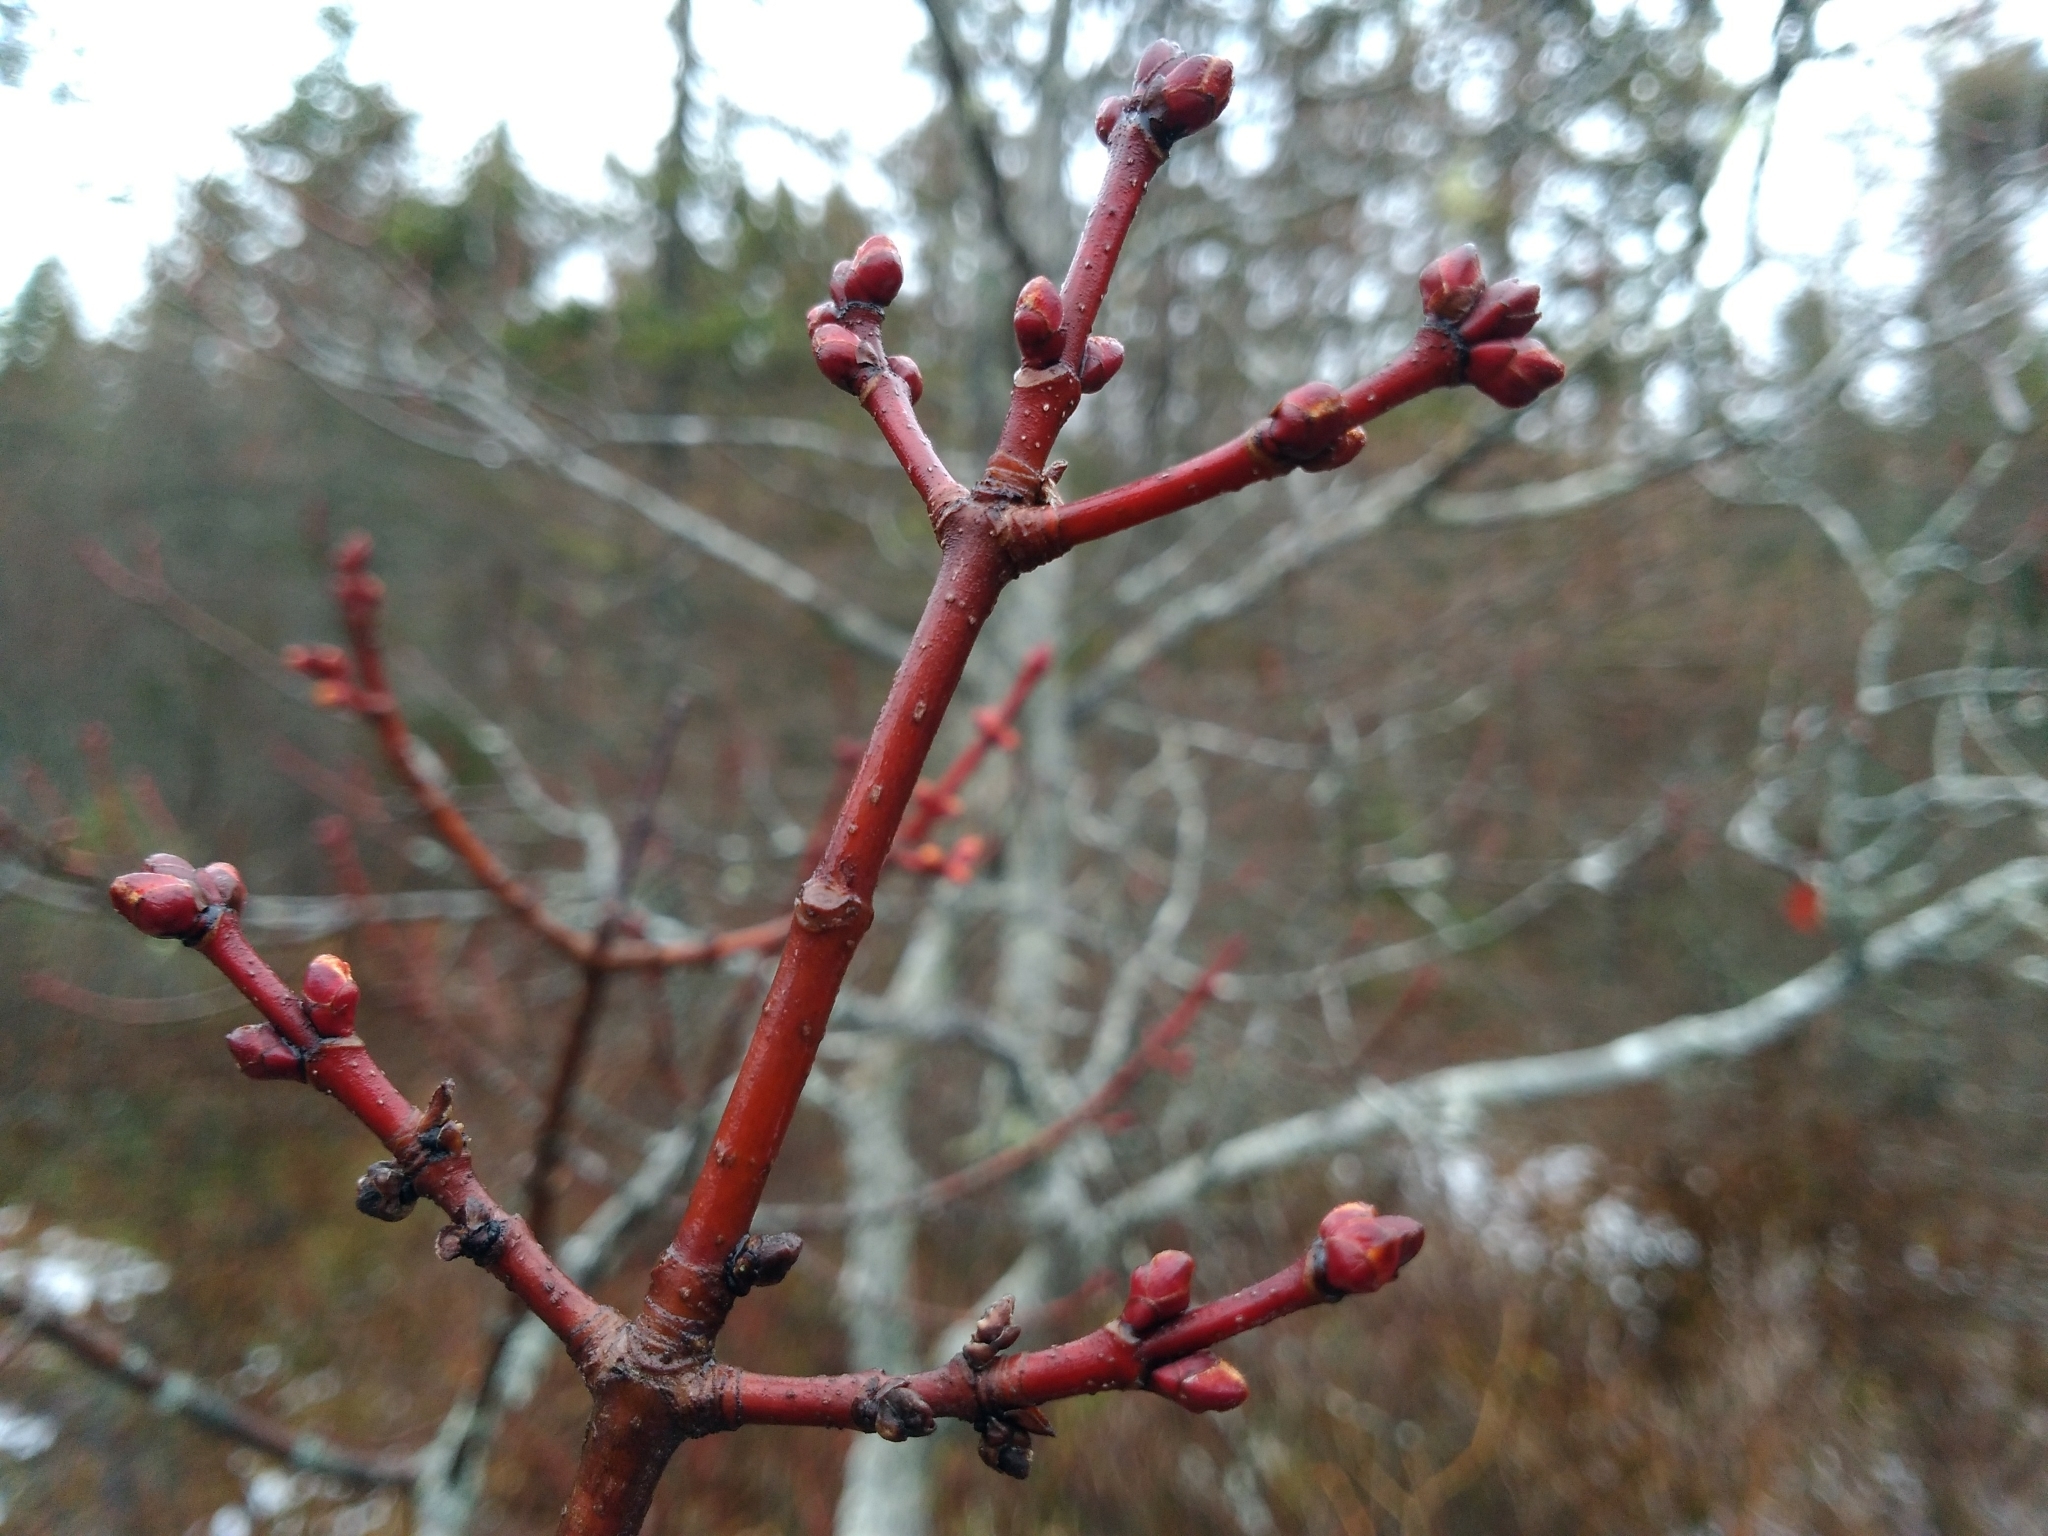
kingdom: Plantae
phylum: Tracheophyta
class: Magnoliopsida
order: Sapindales
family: Sapindaceae
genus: Acer
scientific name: Acer rubrum
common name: Red maple
